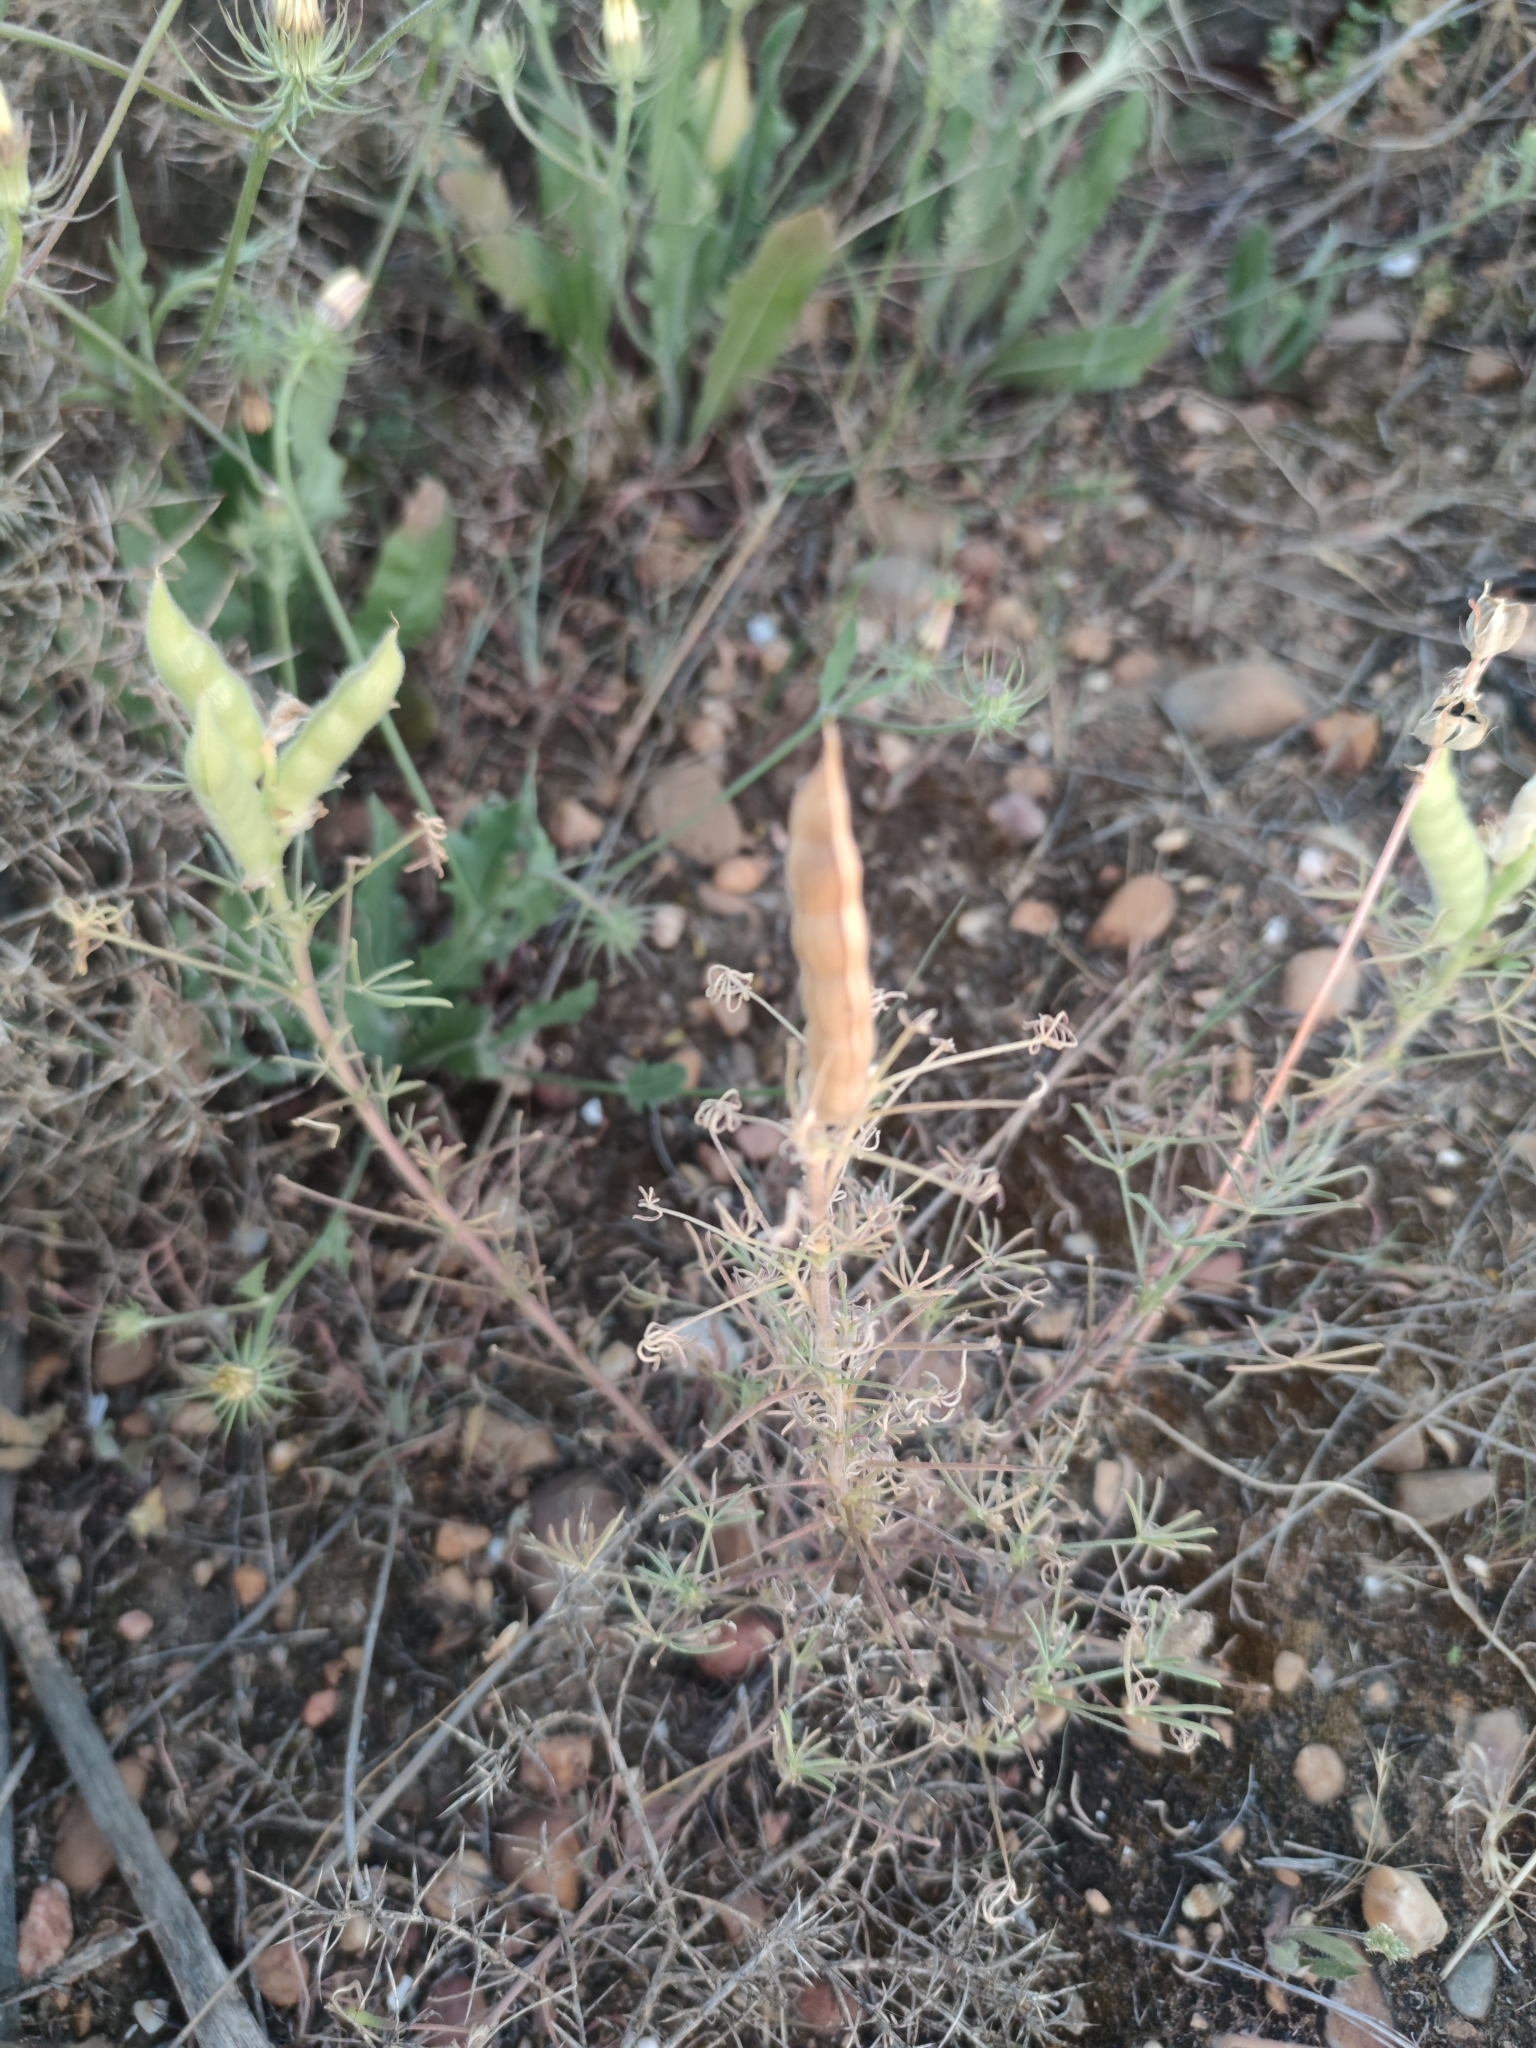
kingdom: Plantae
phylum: Tracheophyta
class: Magnoliopsida
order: Fabales
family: Fabaceae
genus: Lupinus
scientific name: Lupinus angustifolius
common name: Narrow-leaved lupin
